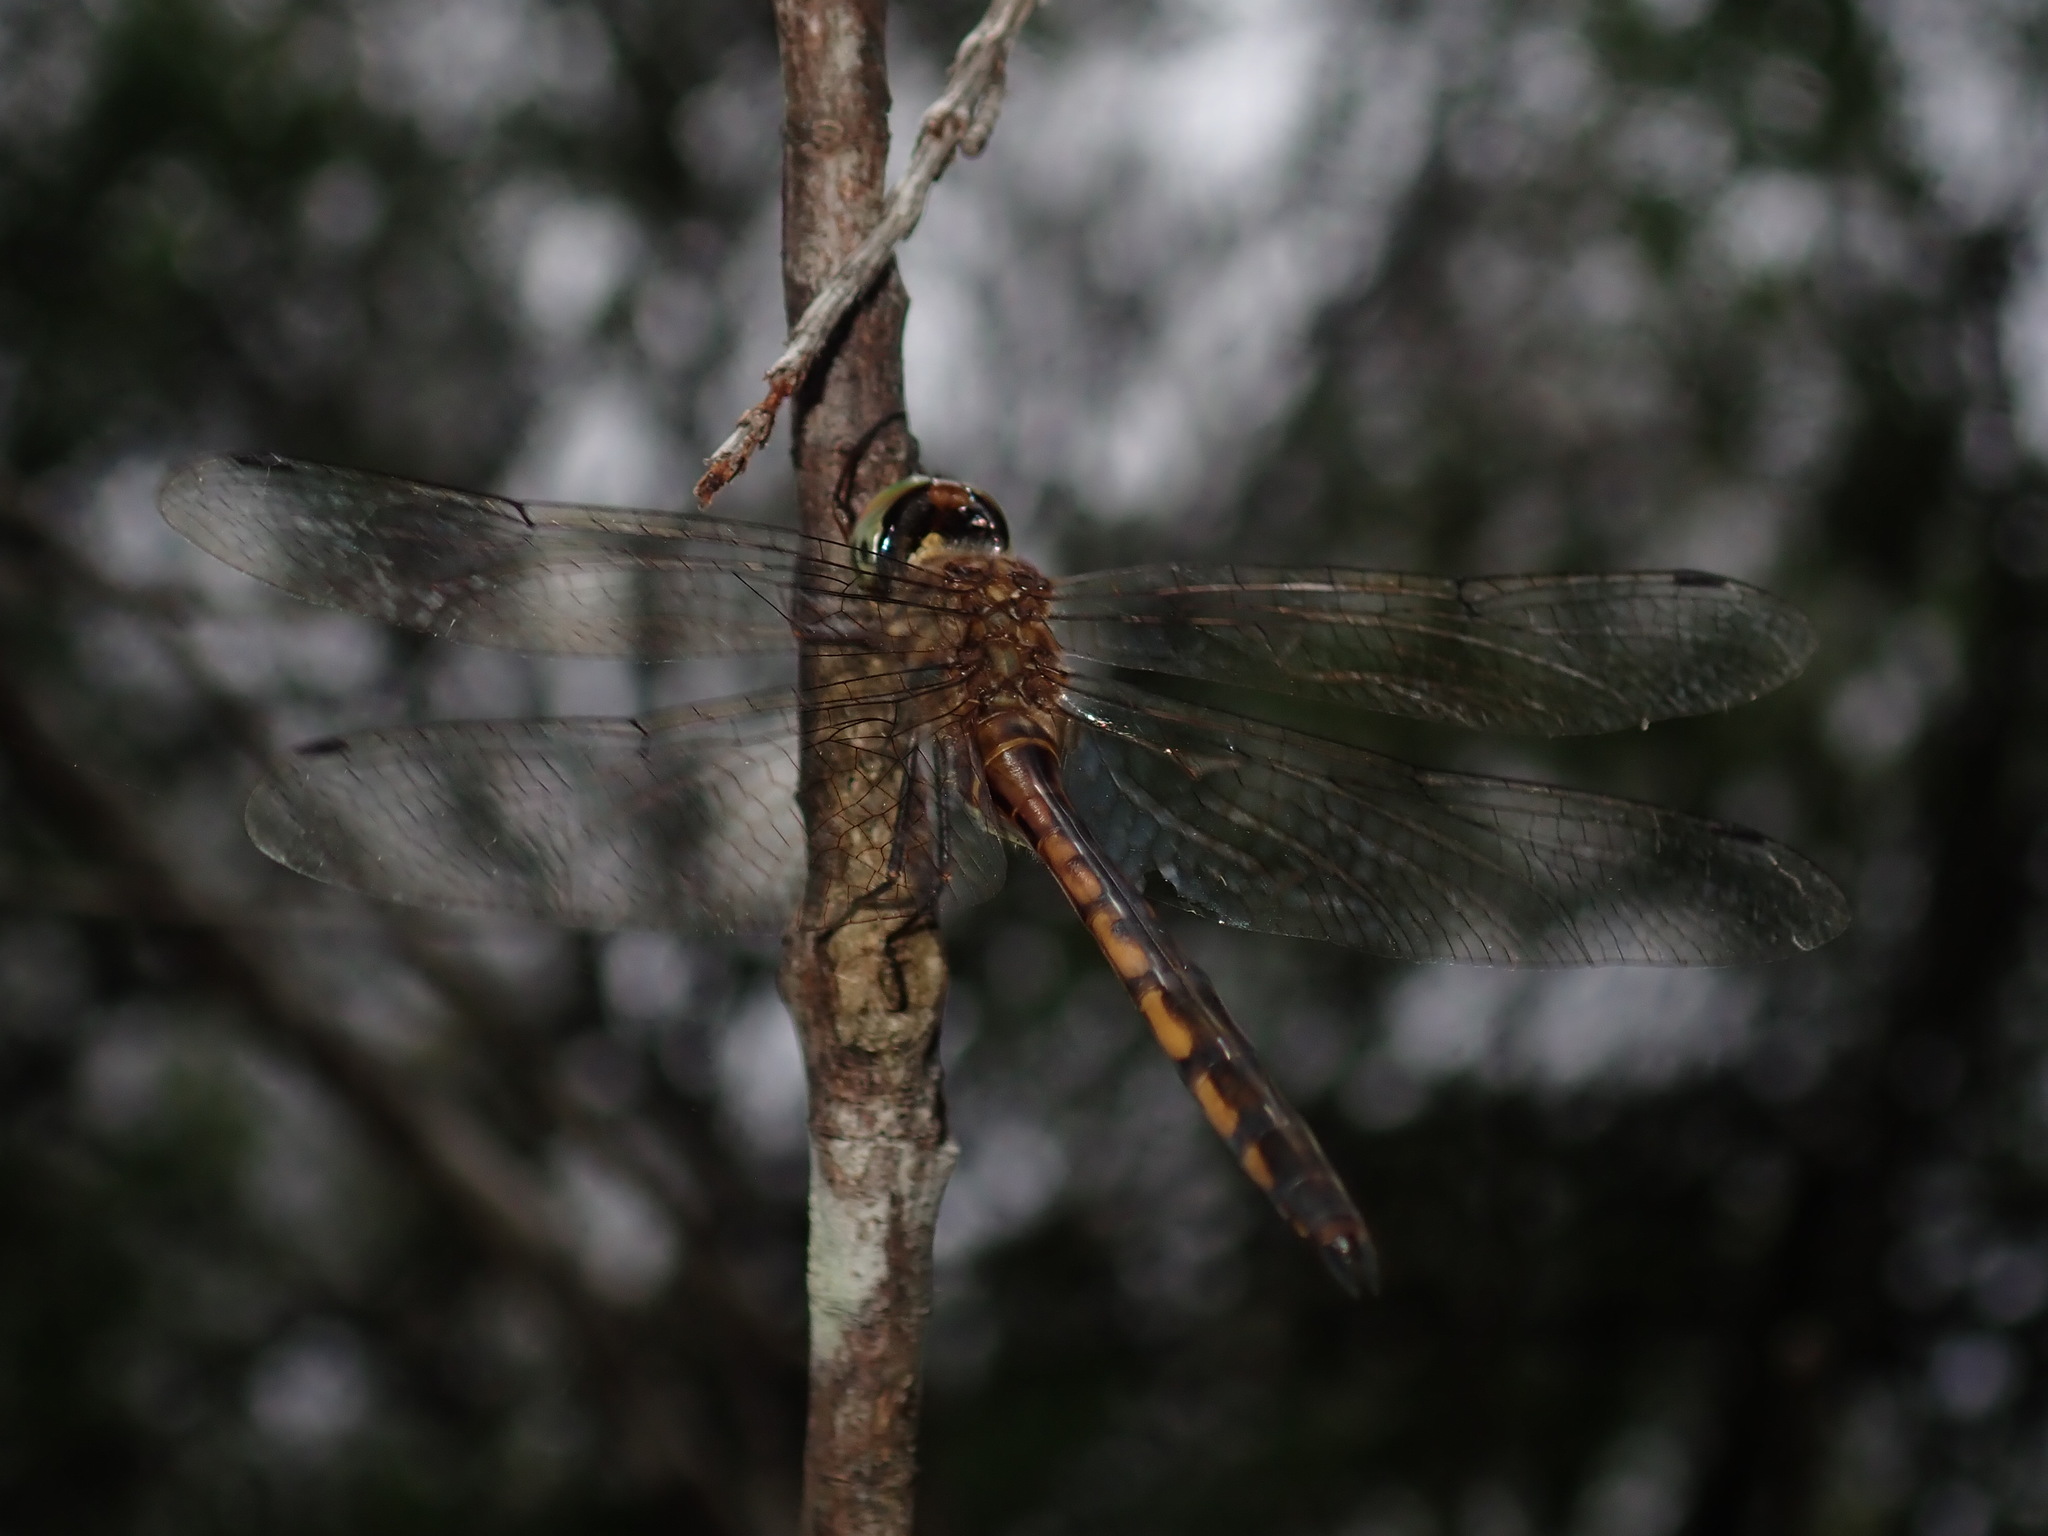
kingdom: Animalia
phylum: Arthropoda
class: Insecta
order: Odonata
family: Corduliidae
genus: Hemicordulia
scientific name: Hemicordulia continentalis
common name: Fat-bellied emerald
